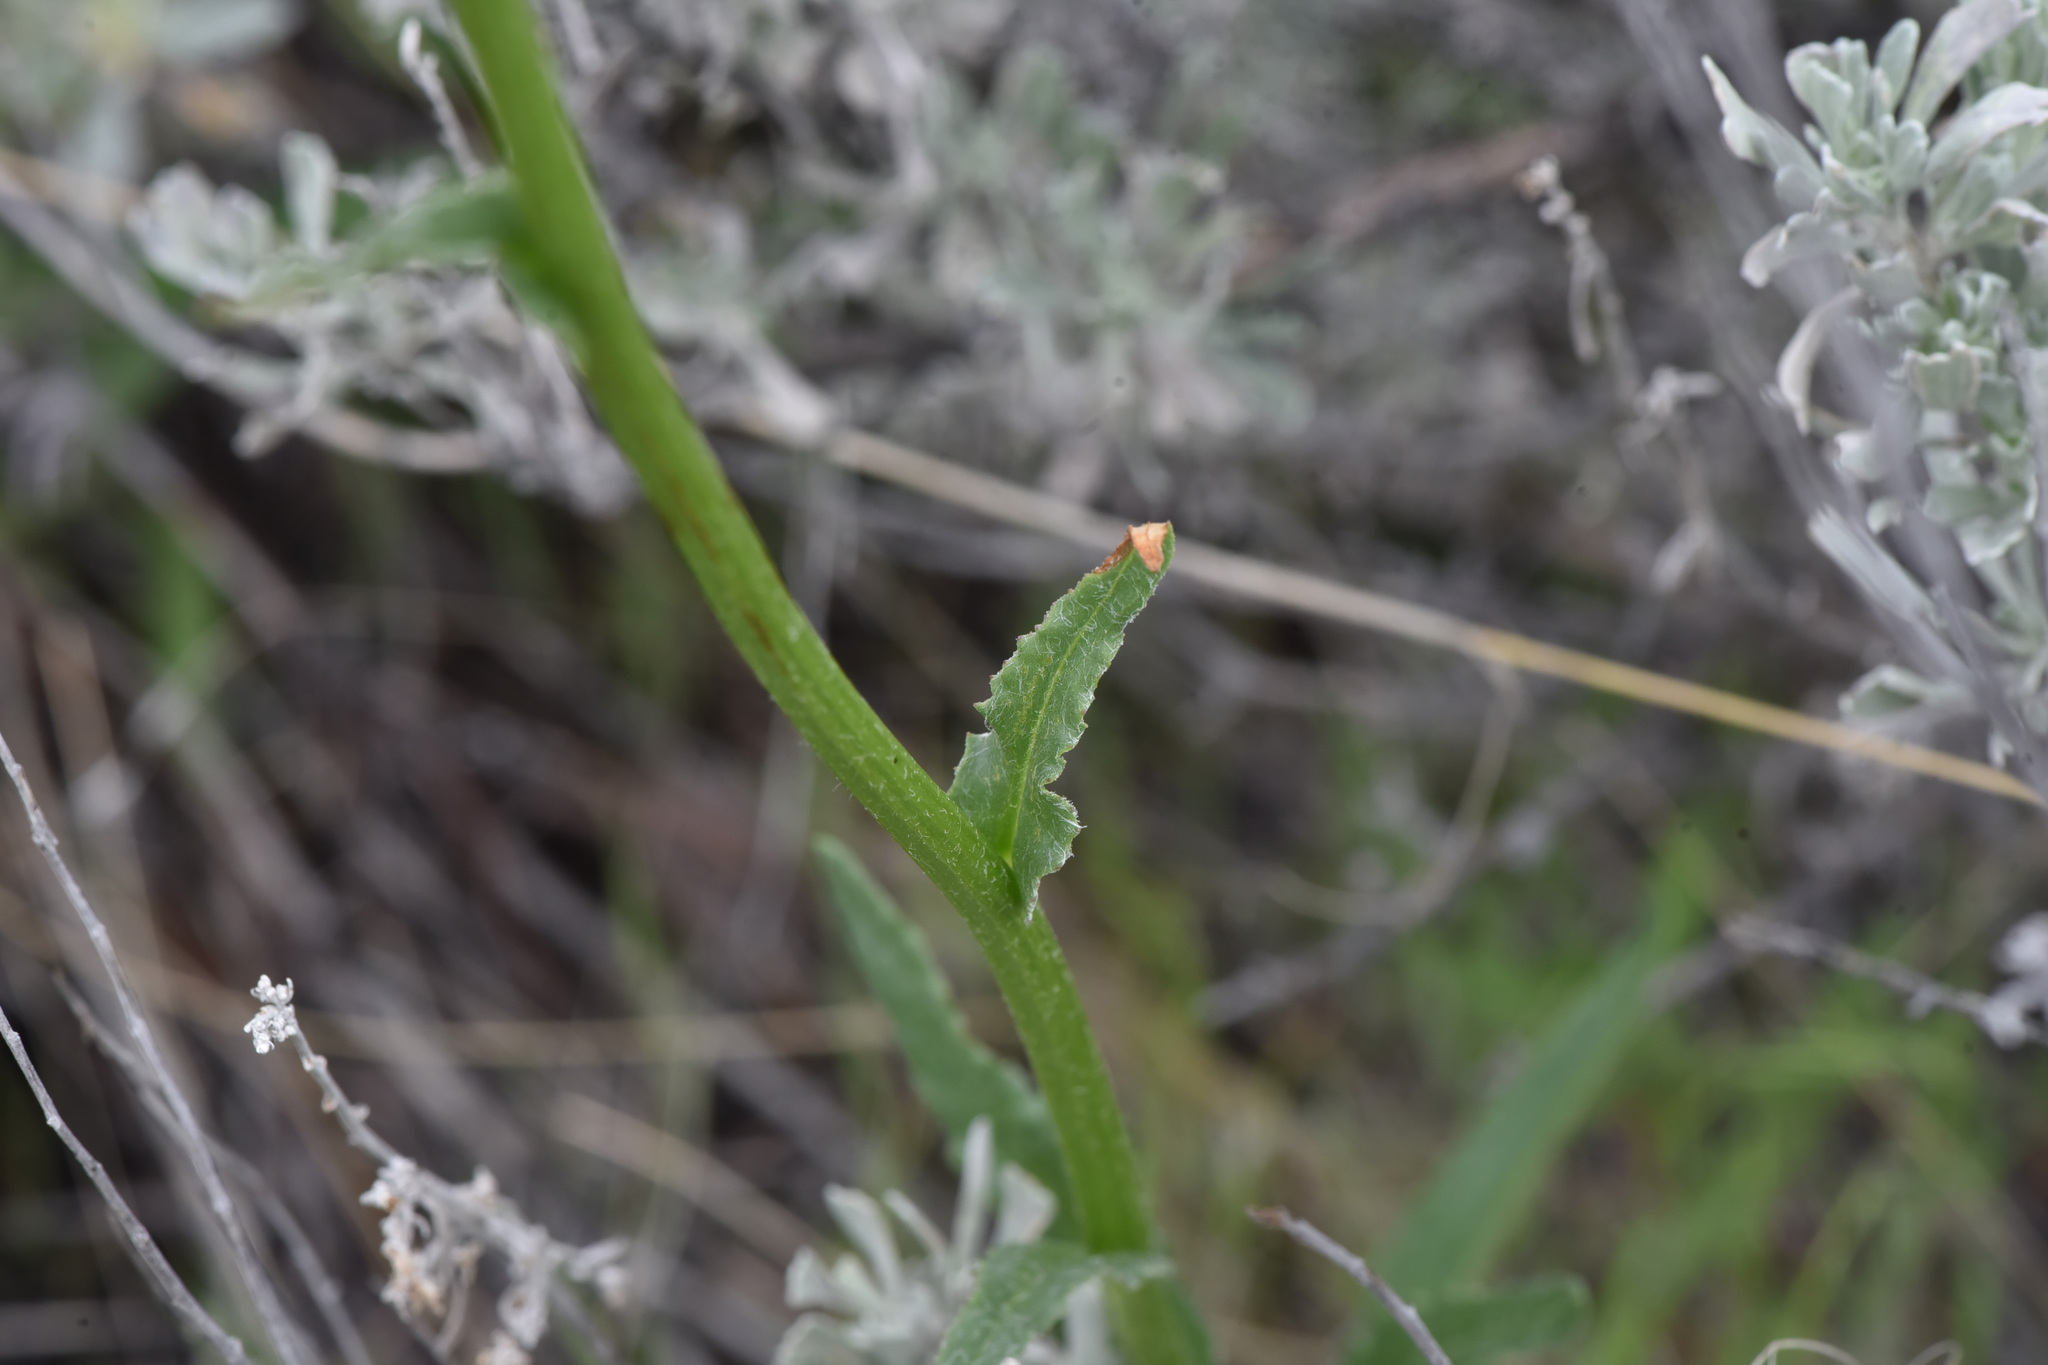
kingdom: Plantae
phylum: Tracheophyta
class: Magnoliopsida
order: Asterales
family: Asteraceae
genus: Senecio
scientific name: Senecio integerrimus
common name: Gaugeplant
